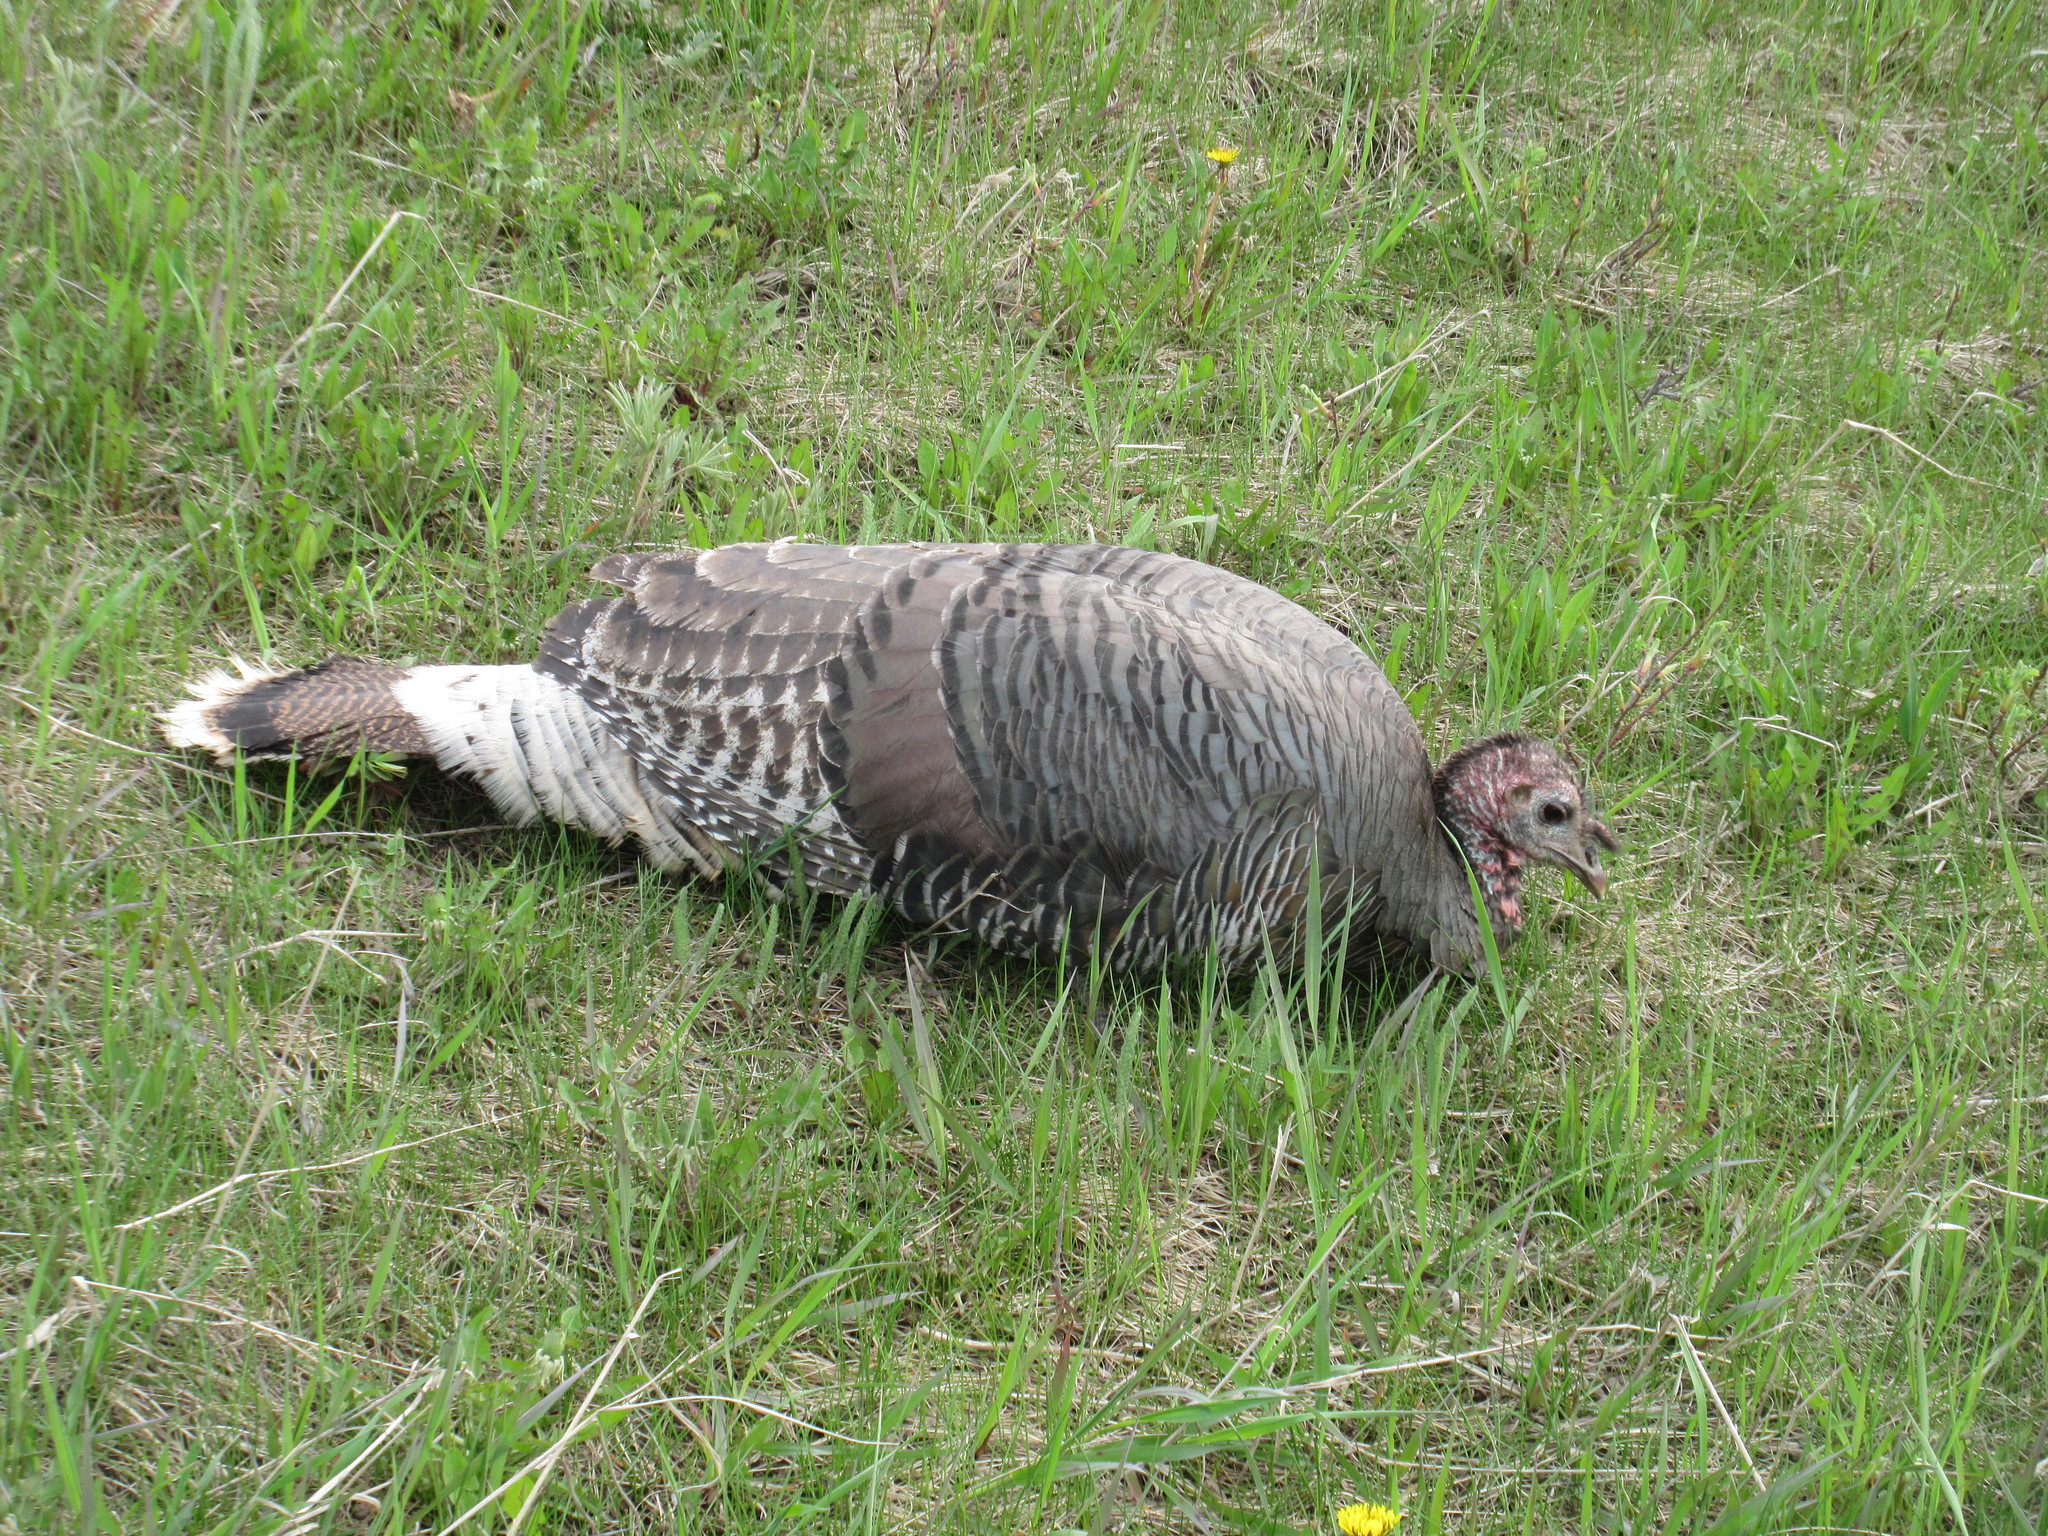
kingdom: Animalia
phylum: Chordata
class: Aves
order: Galliformes
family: Phasianidae
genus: Meleagris
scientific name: Meleagris gallopavo
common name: Wild turkey
